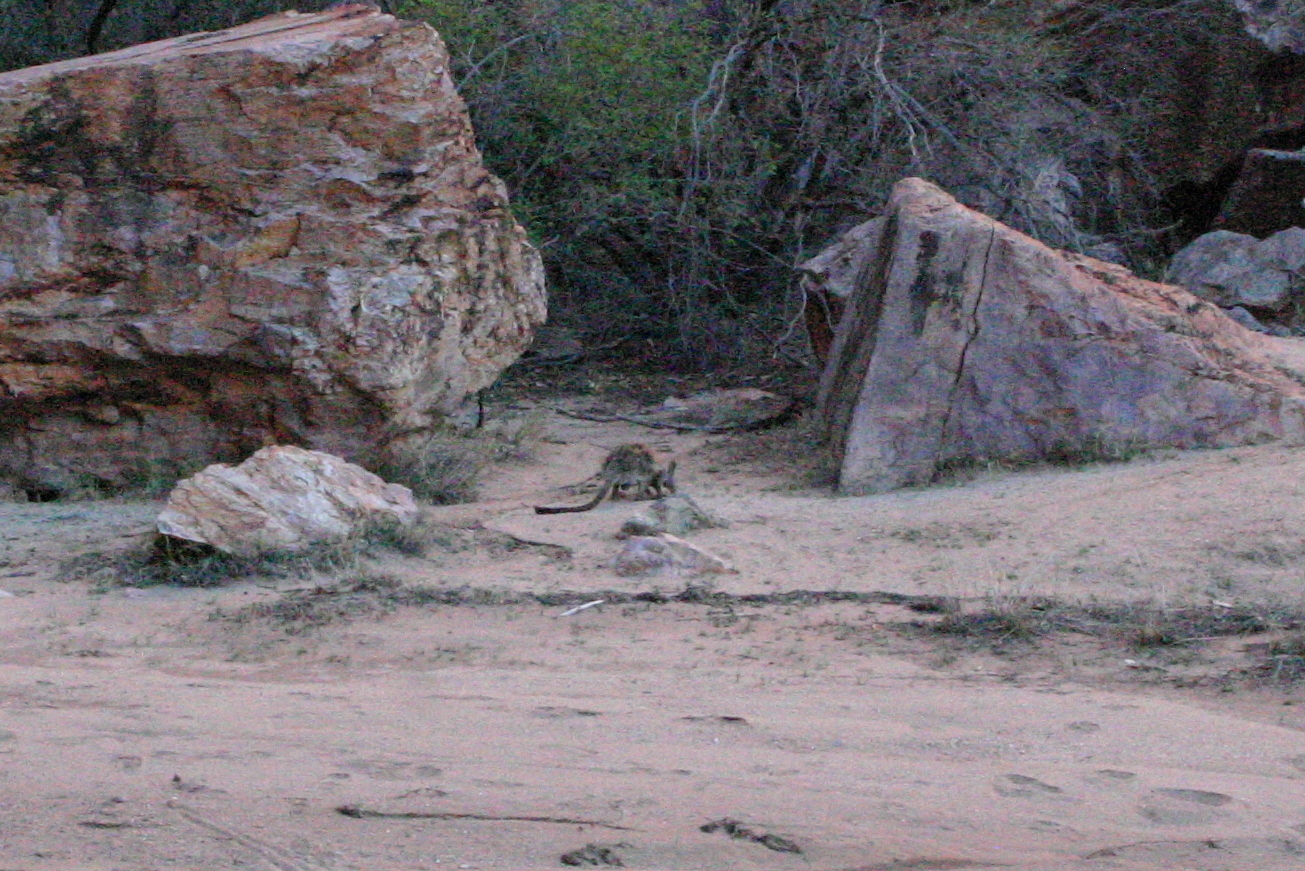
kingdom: Animalia
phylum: Chordata
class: Mammalia
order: Diprotodontia
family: Macropodidae
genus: Petrogale
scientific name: Petrogale lateralis
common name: Black-flanked rock-wallaby
